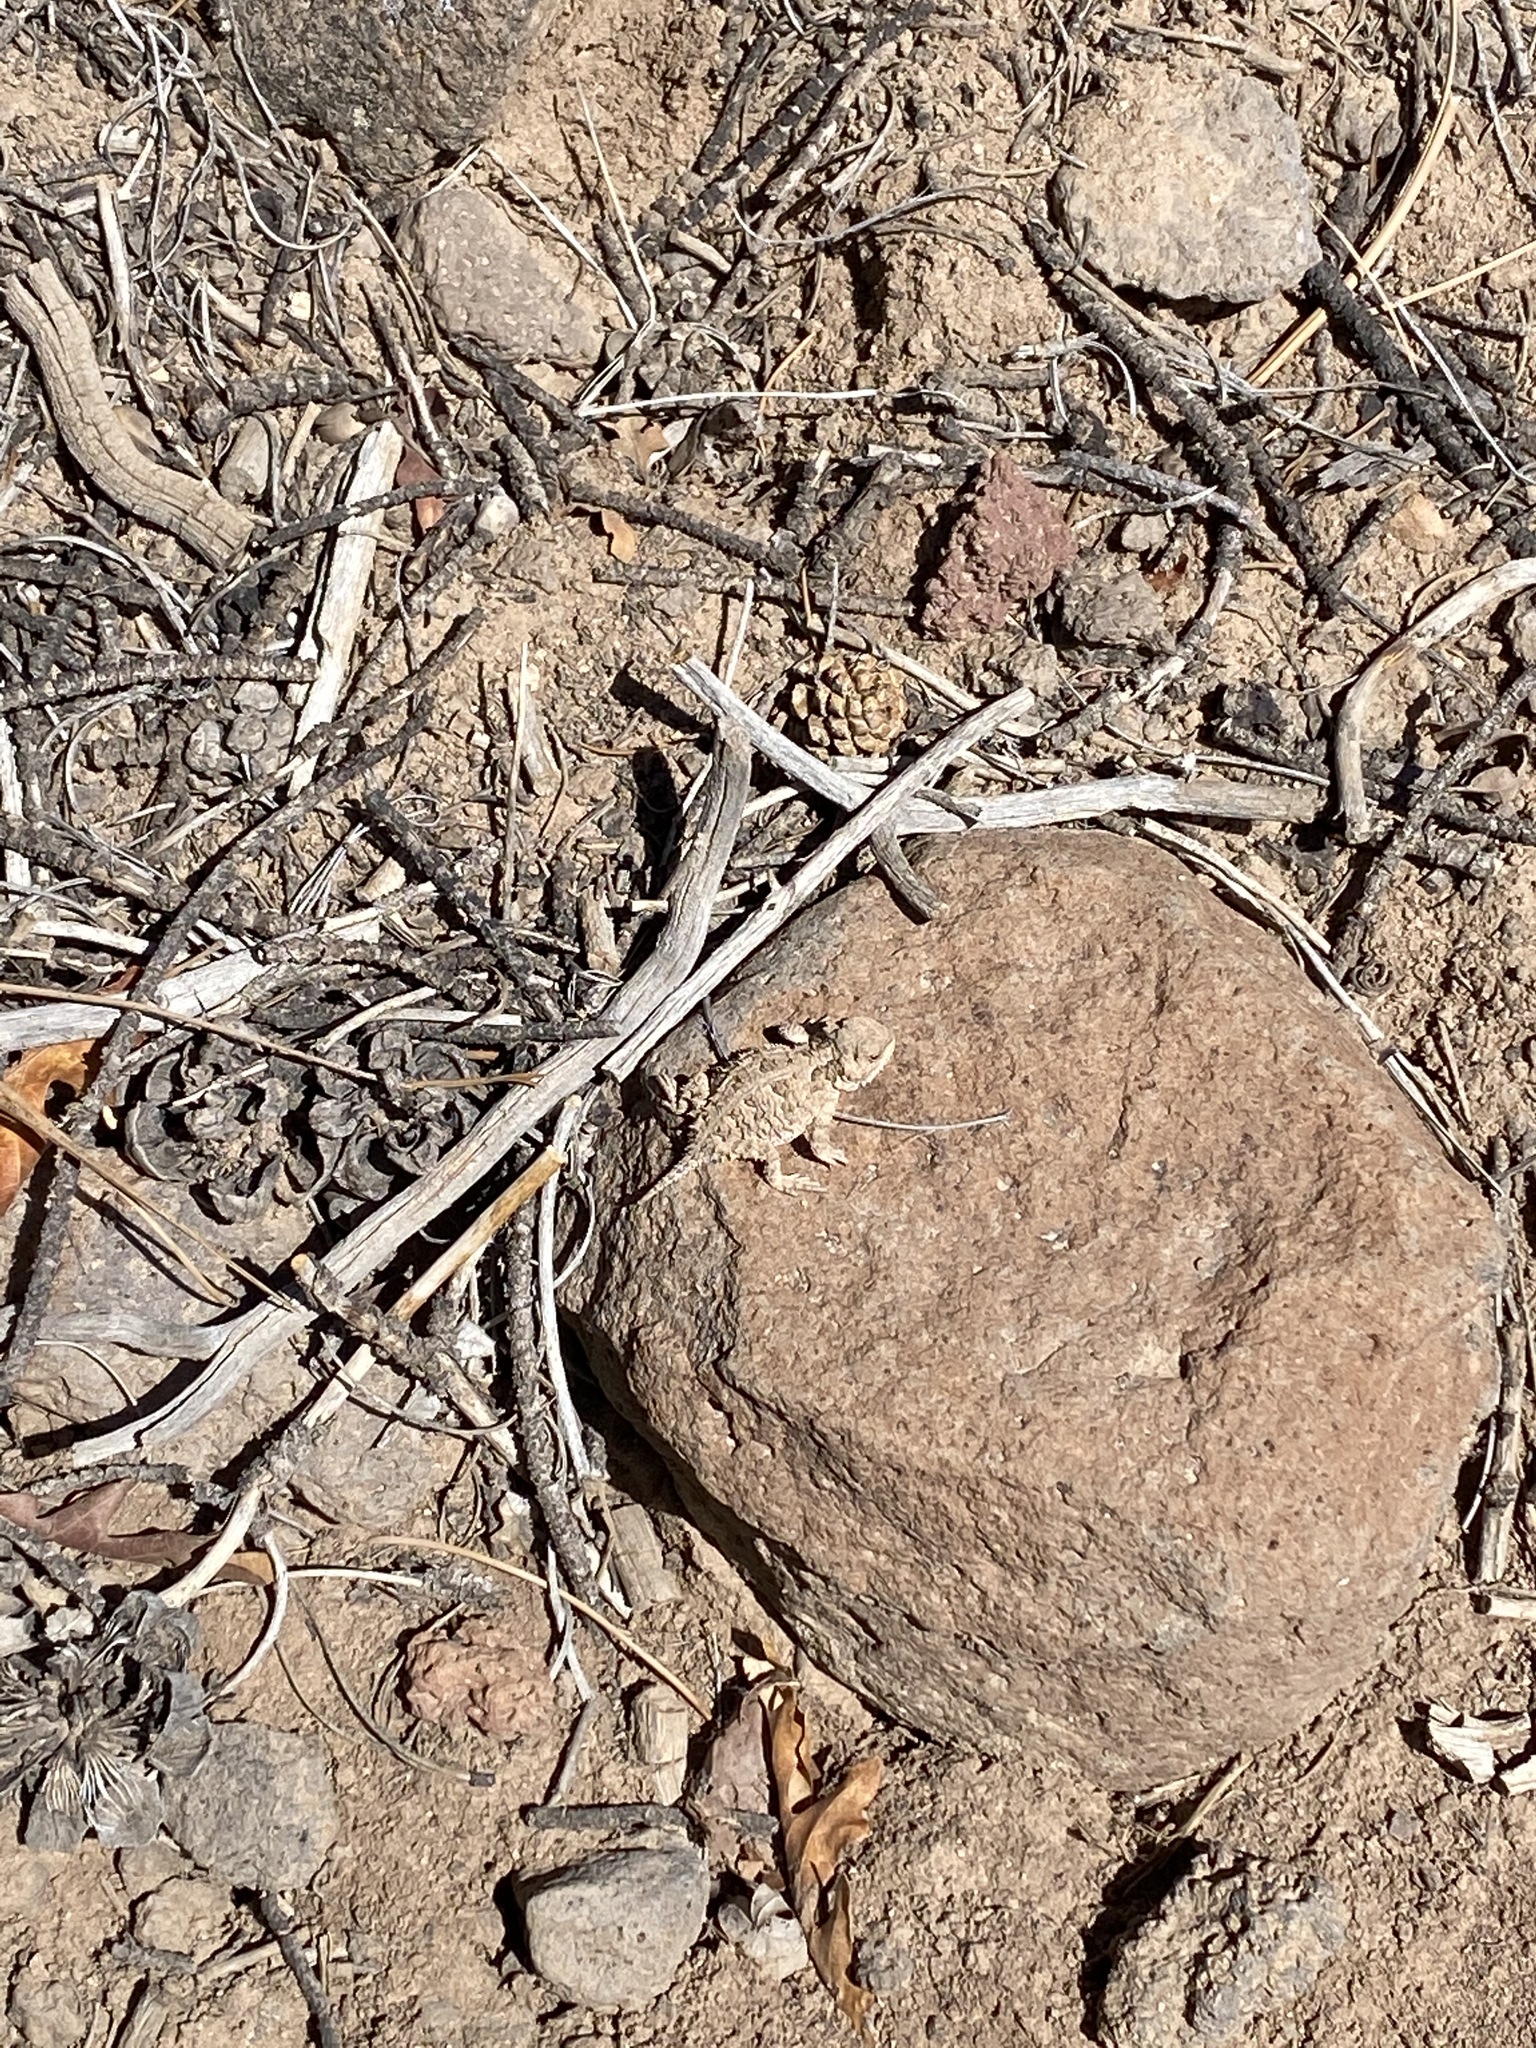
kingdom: Animalia
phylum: Chordata
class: Squamata
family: Phrynosomatidae
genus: Phrynosoma
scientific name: Phrynosoma hernandesi
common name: Greater short-horned lizard
